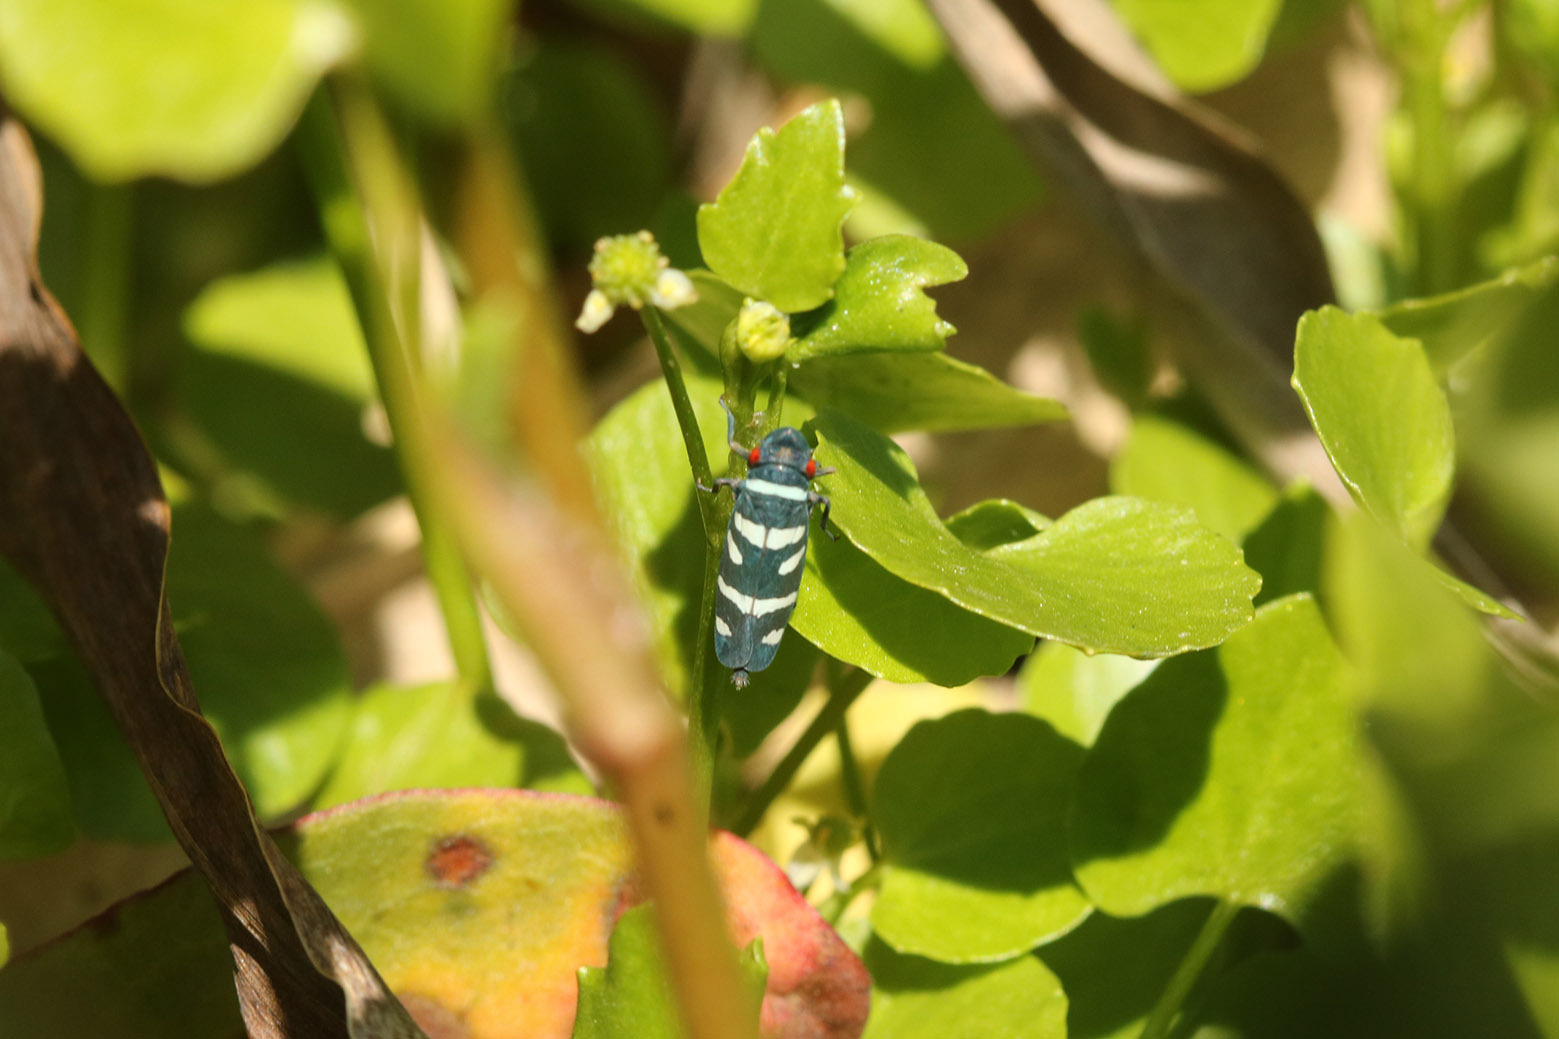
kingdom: Animalia
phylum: Arthropoda
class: Insecta
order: Hemiptera
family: Cicadellidae
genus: Balacha
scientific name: Balacha melanocephala
